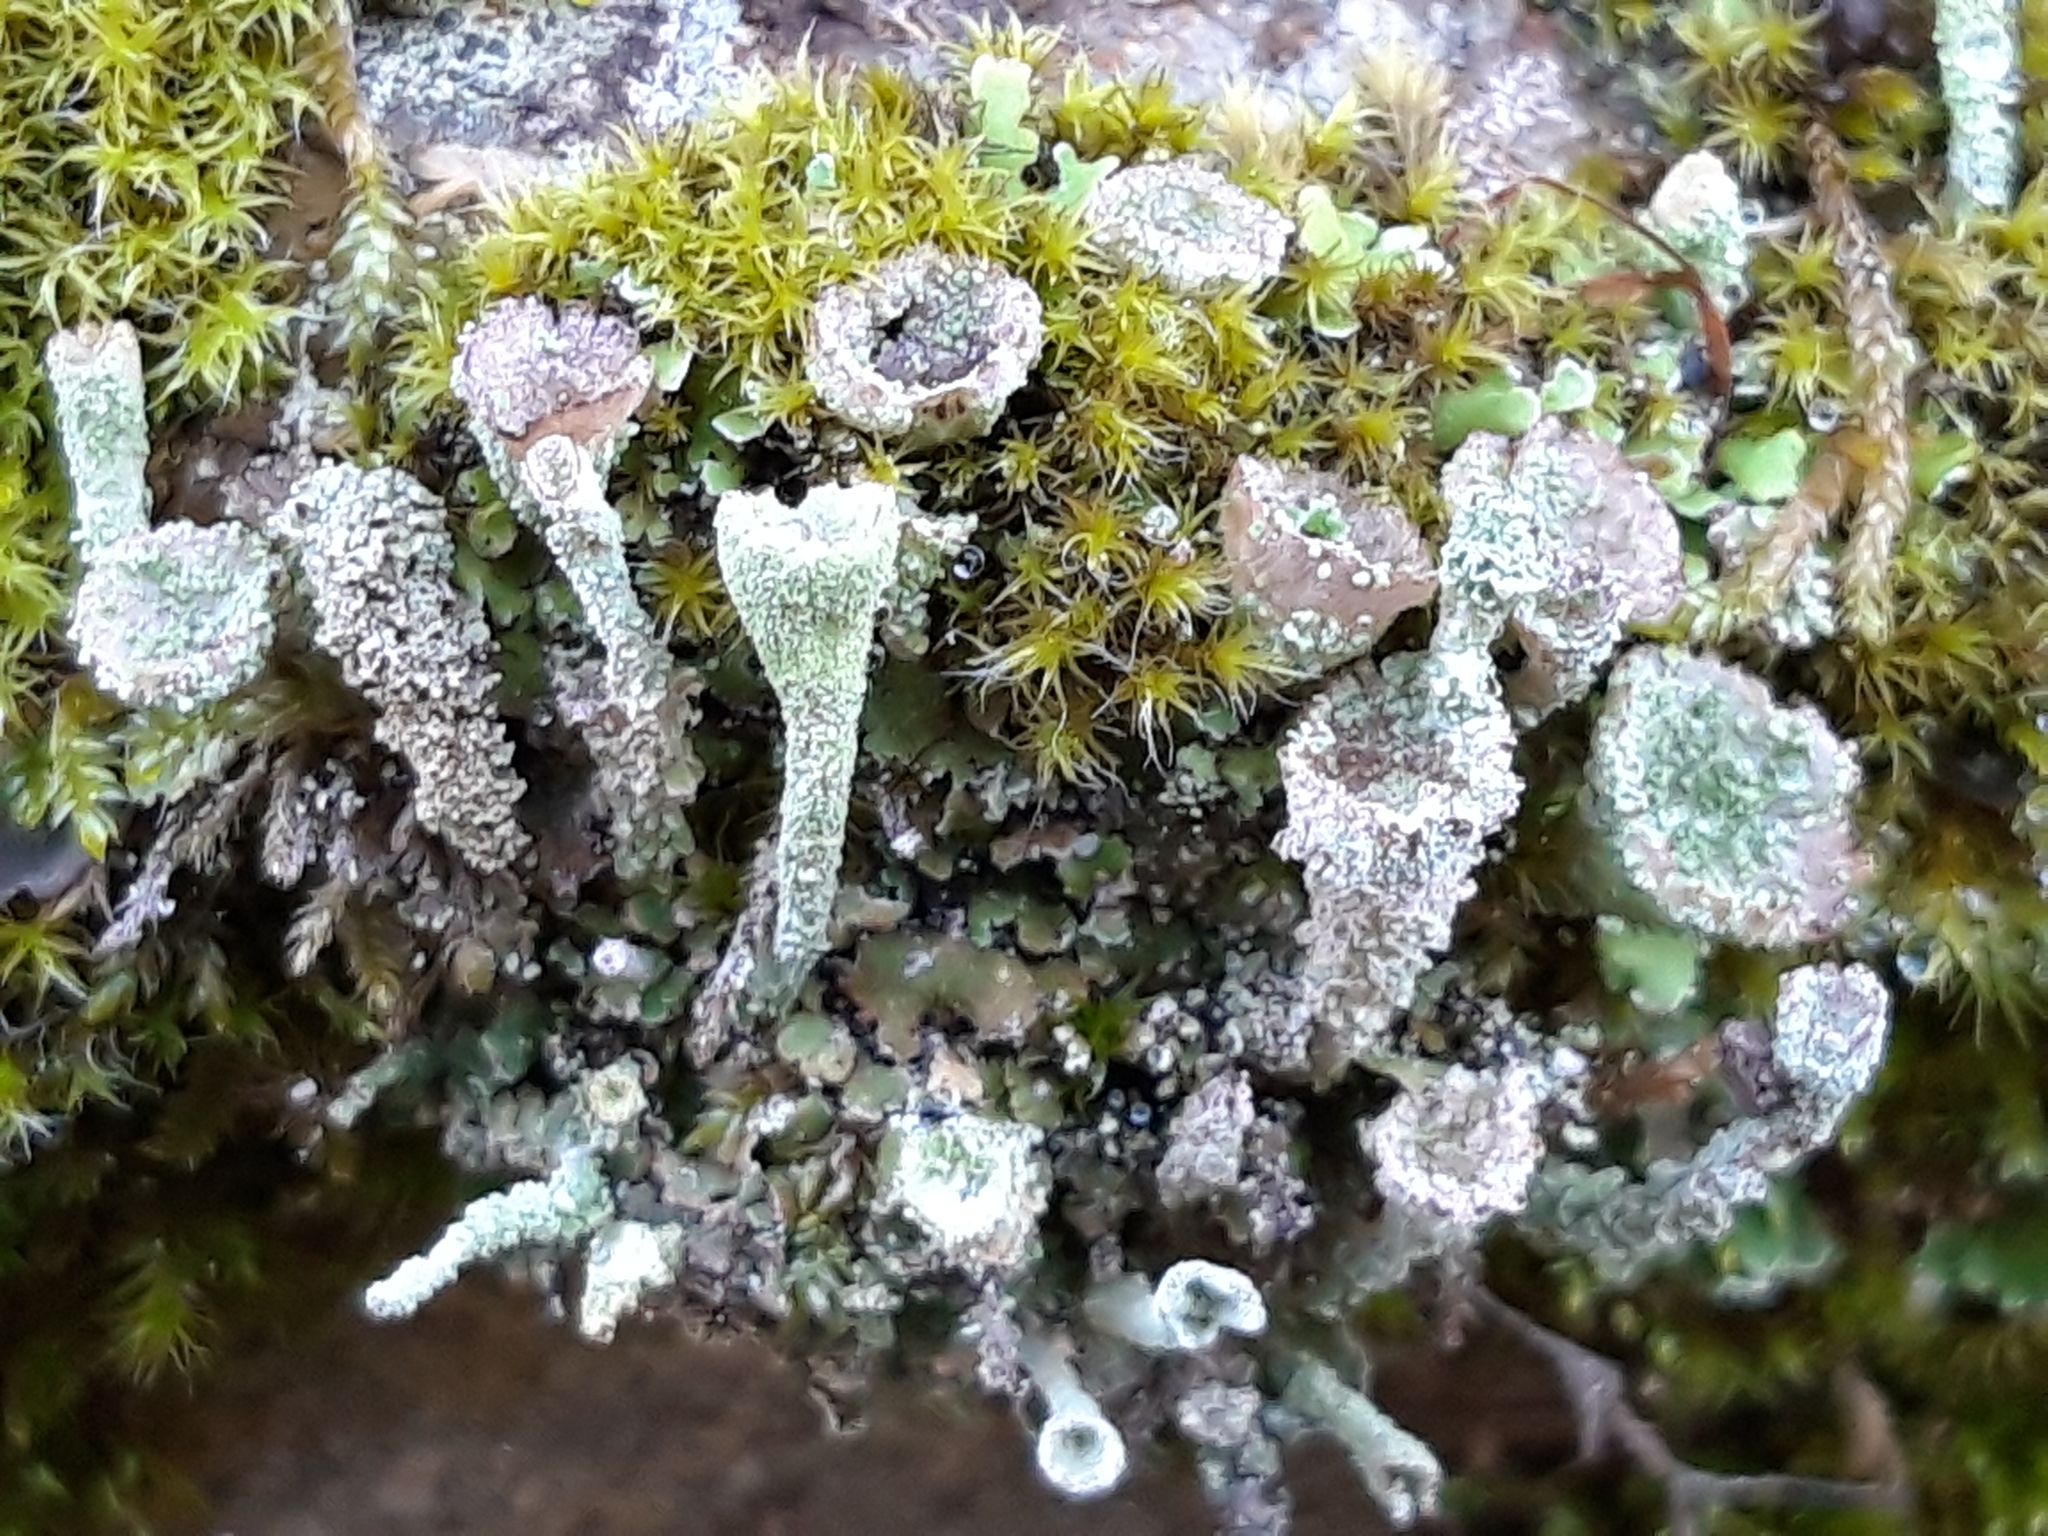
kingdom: Fungi
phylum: Ascomycota
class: Lecanoromycetes
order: Lecanorales
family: Cladoniaceae
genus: Cladonia
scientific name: Cladonia pyxidata
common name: Pebbled pixie cup
